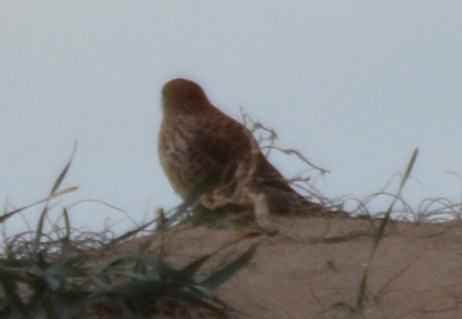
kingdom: Animalia
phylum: Chordata
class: Aves
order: Falconiformes
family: Falconidae
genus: Falco
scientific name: Falco tinnunculus
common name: Common kestrel
